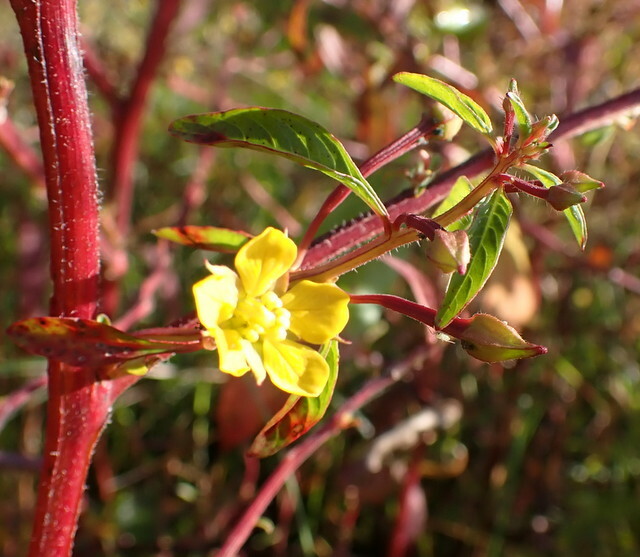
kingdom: Plantae
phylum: Tracheophyta
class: Magnoliopsida
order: Myrtales
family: Onagraceae
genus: Ludwigia
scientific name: Ludwigia leptocarpa
